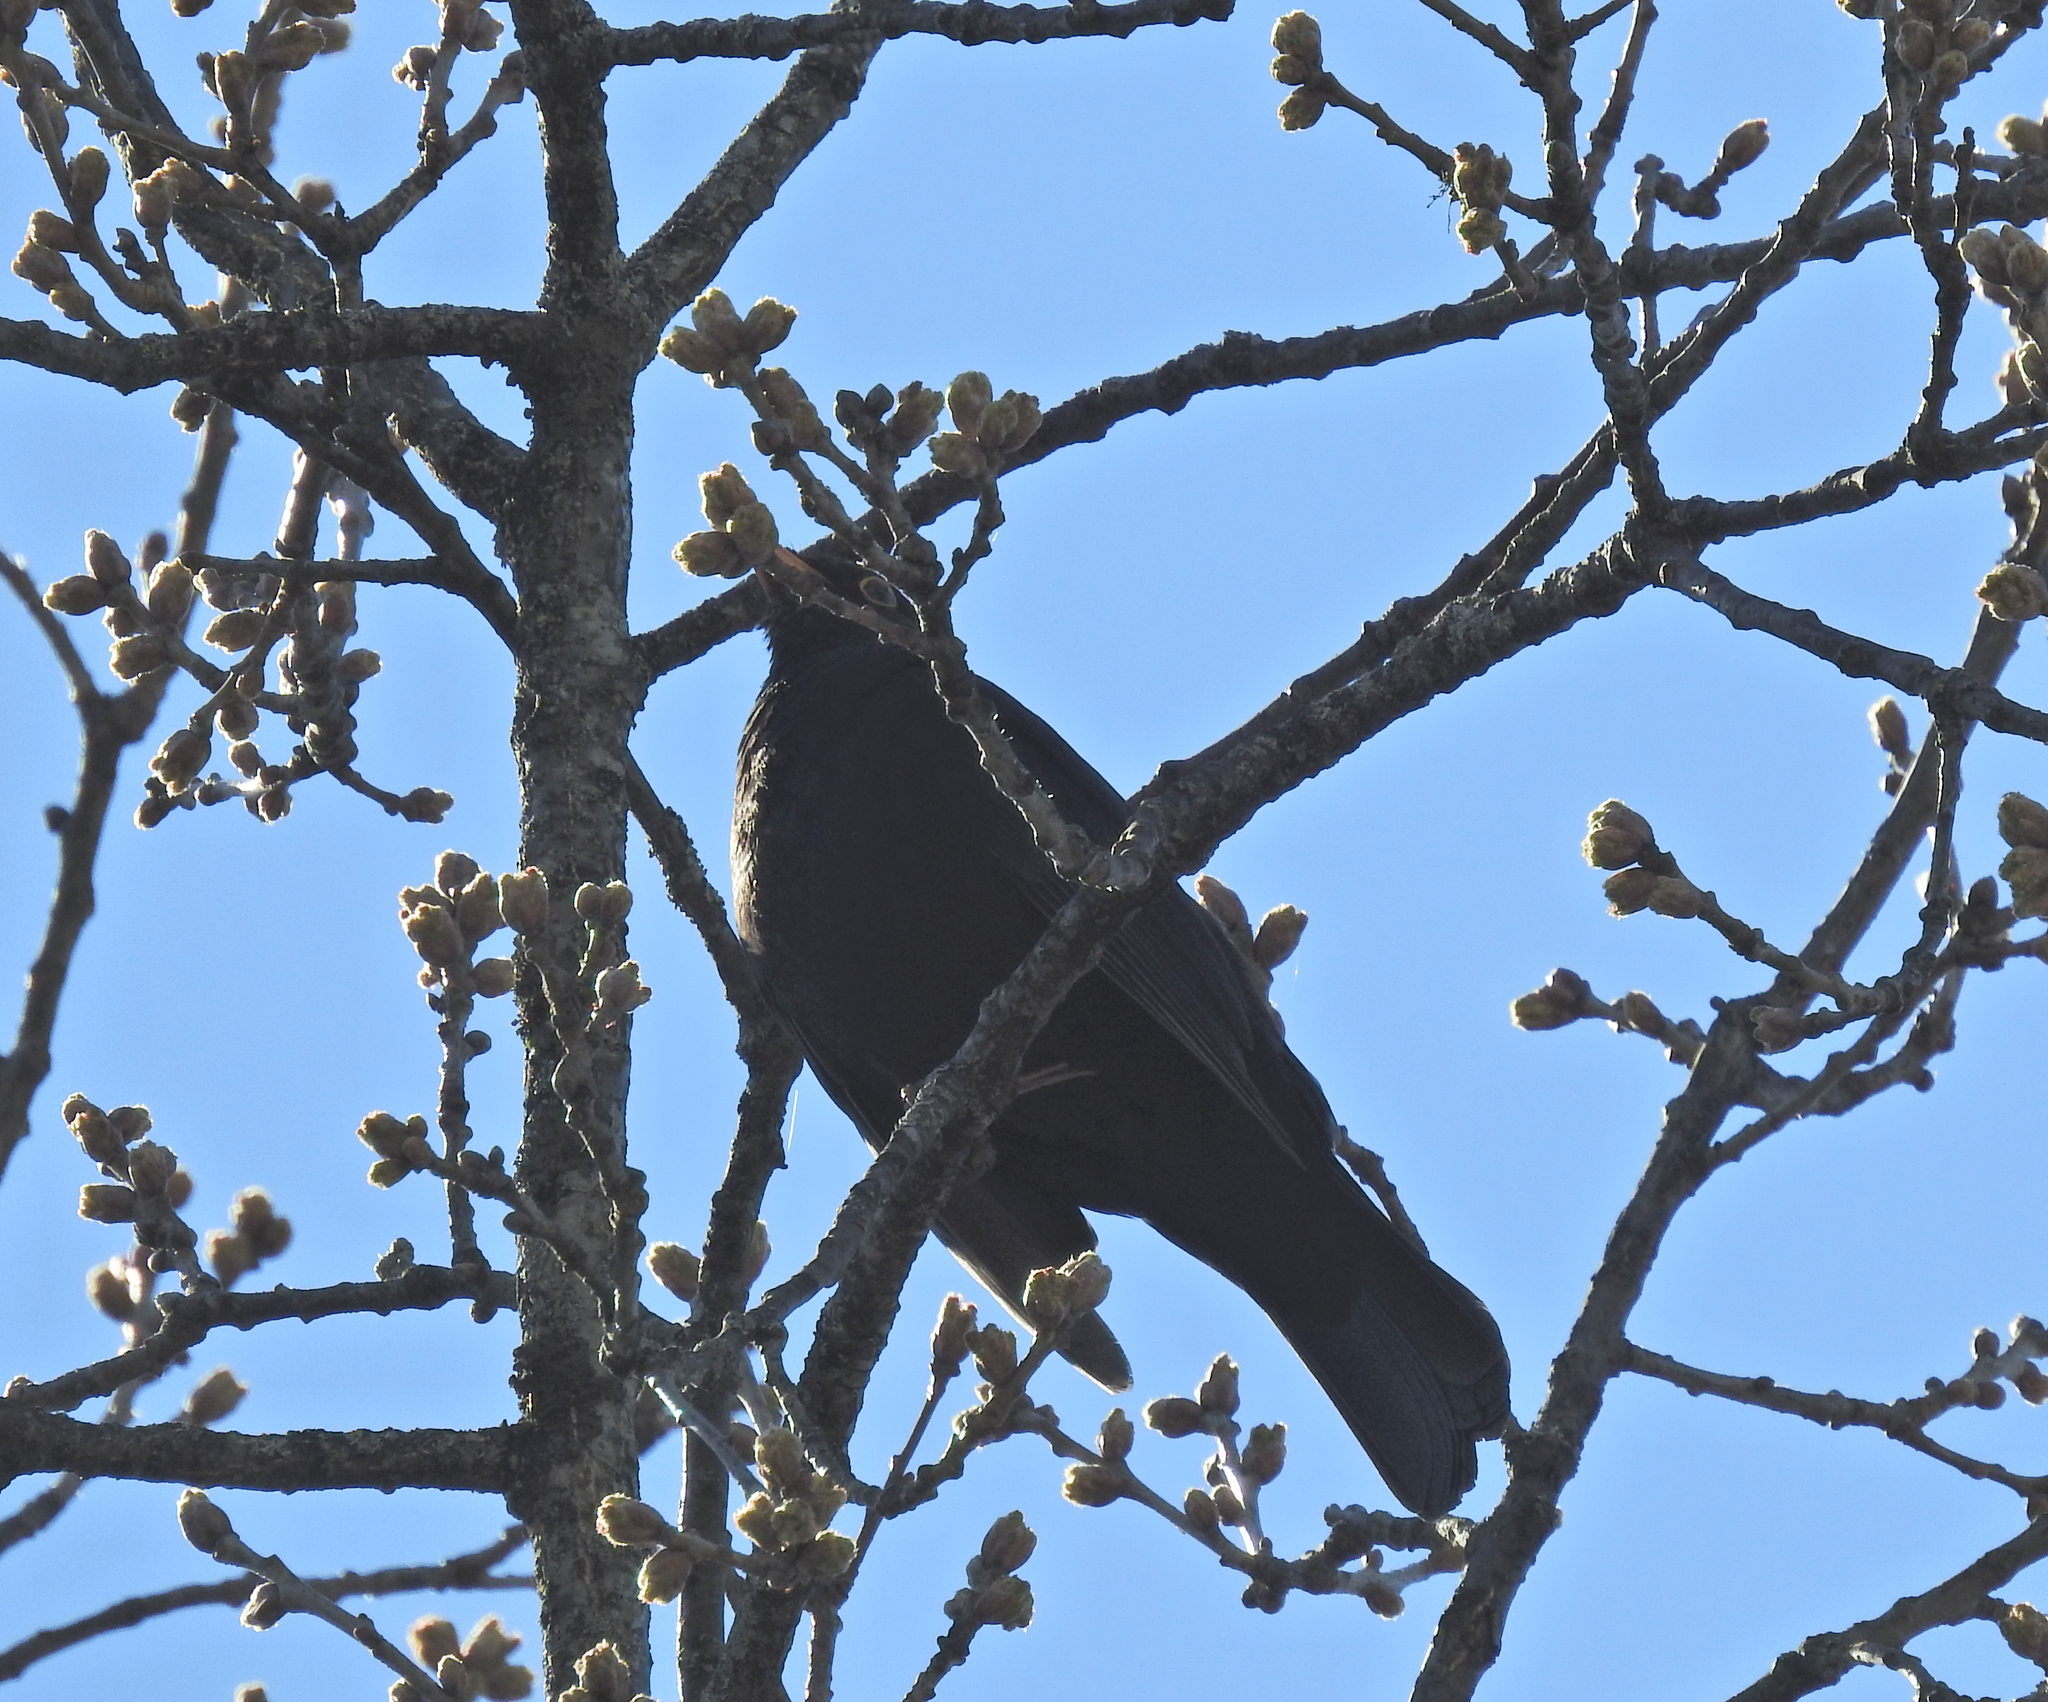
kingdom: Animalia
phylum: Chordata
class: Aves
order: Passeriformes
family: Turdidae
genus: Turdus
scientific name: Turdus merula
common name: Common blackbird
